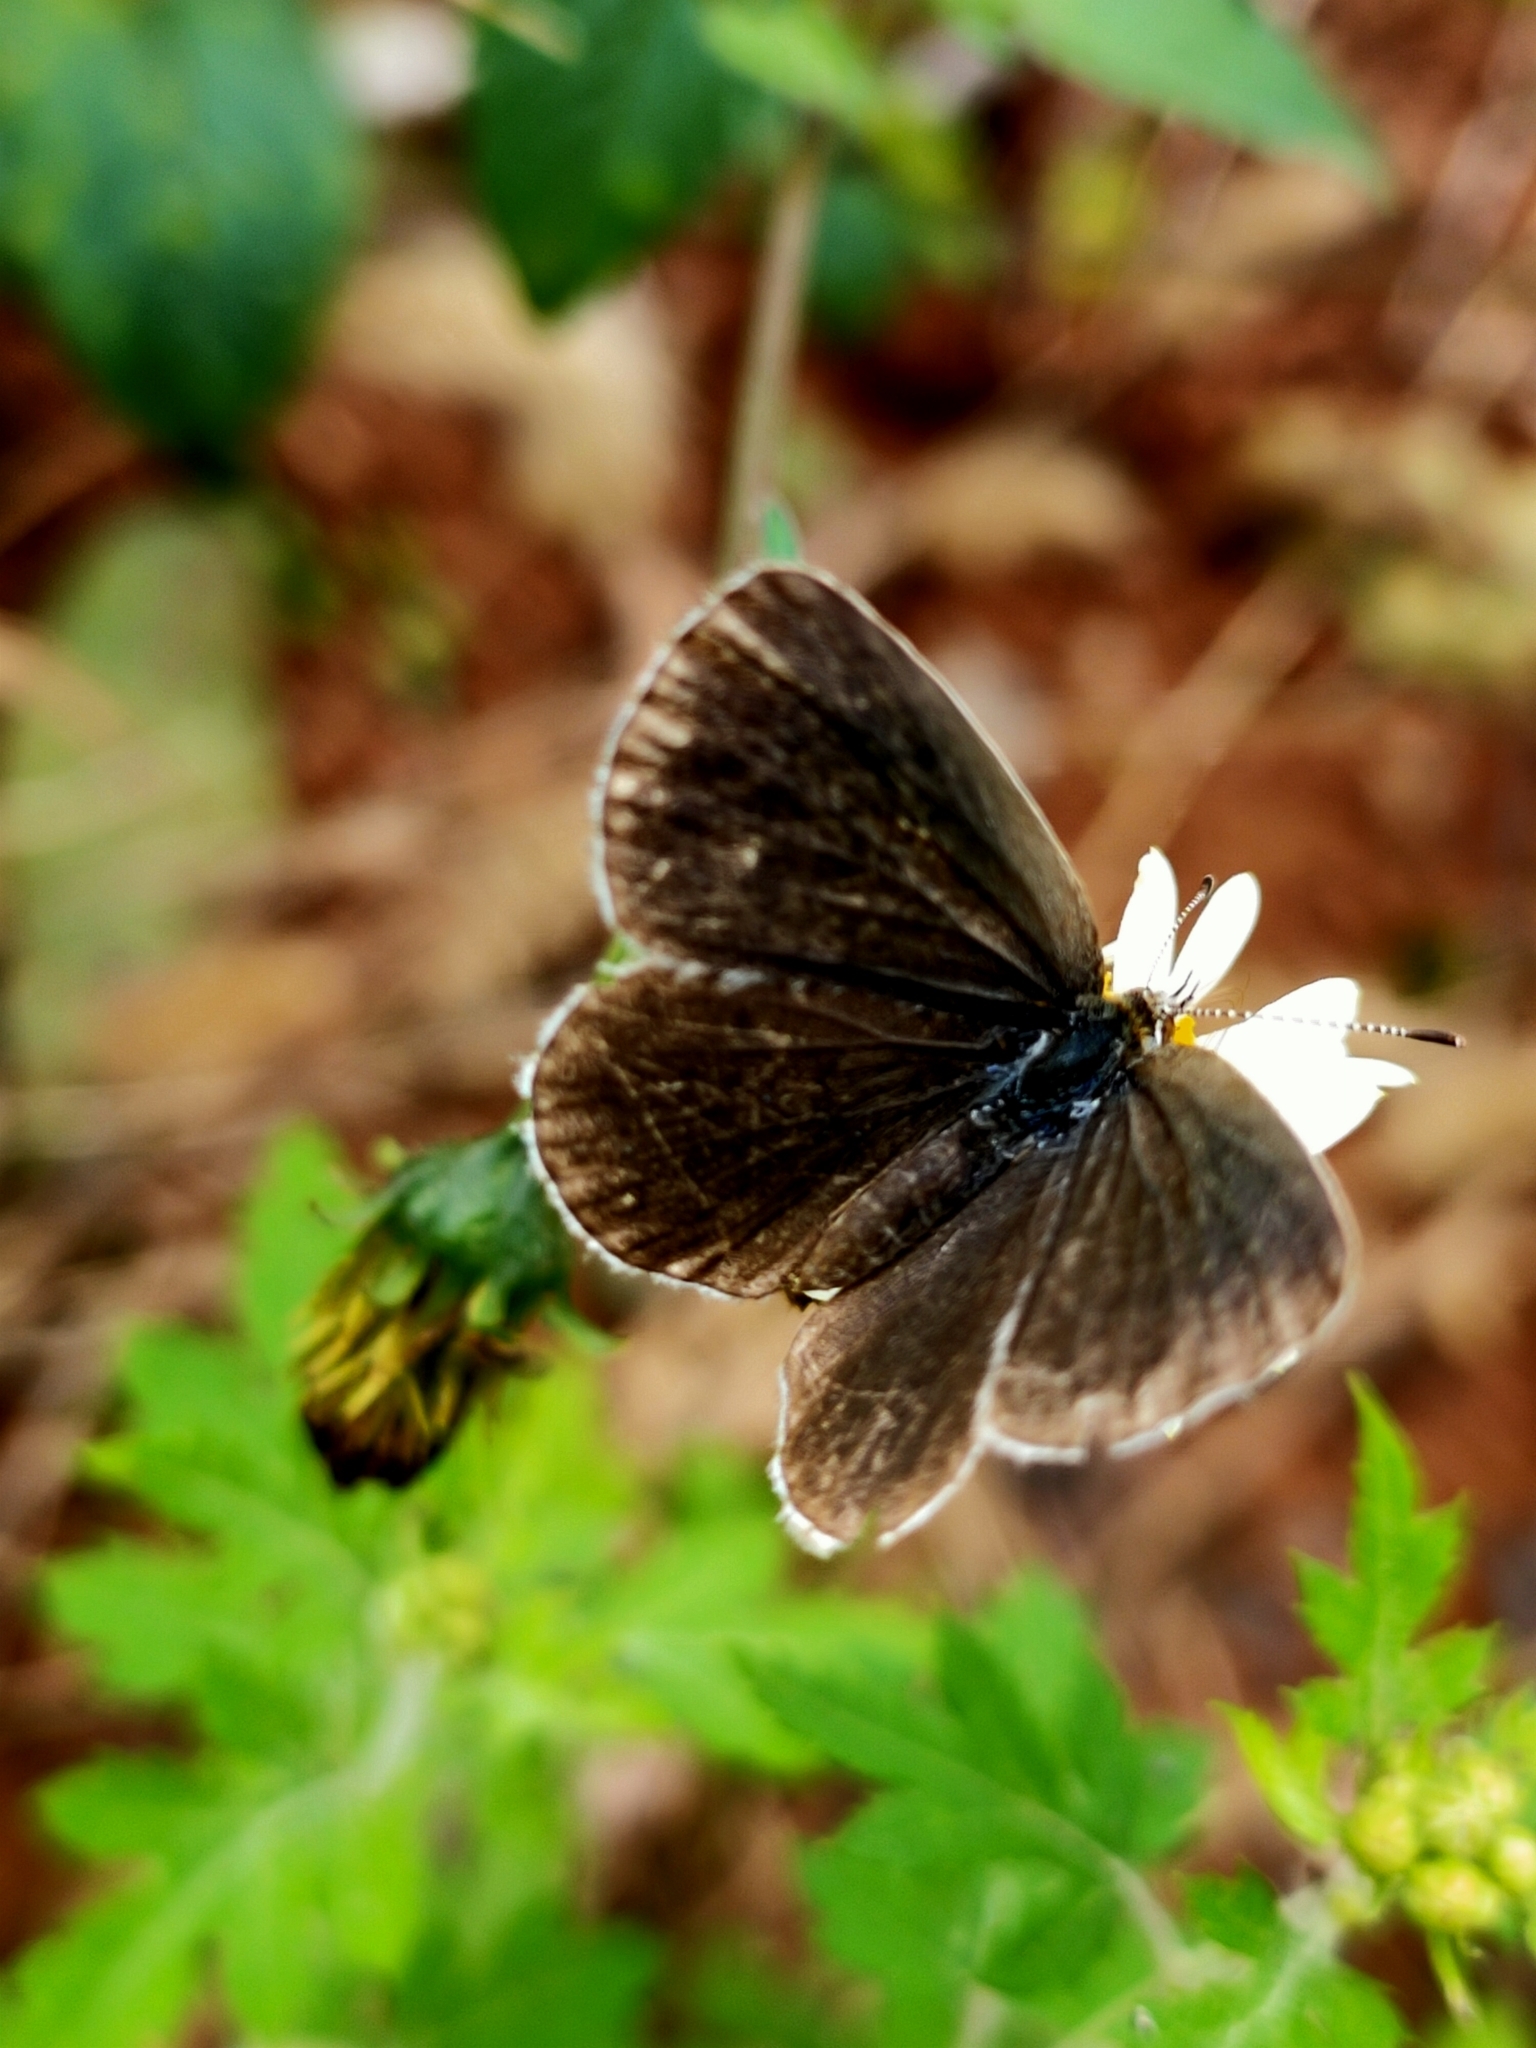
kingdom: Animalia
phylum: Arthropoda
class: Insecta
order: Lepidoptera
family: Lycaenidae
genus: Pseudozizeeria
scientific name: Pseudozizeeria maha
